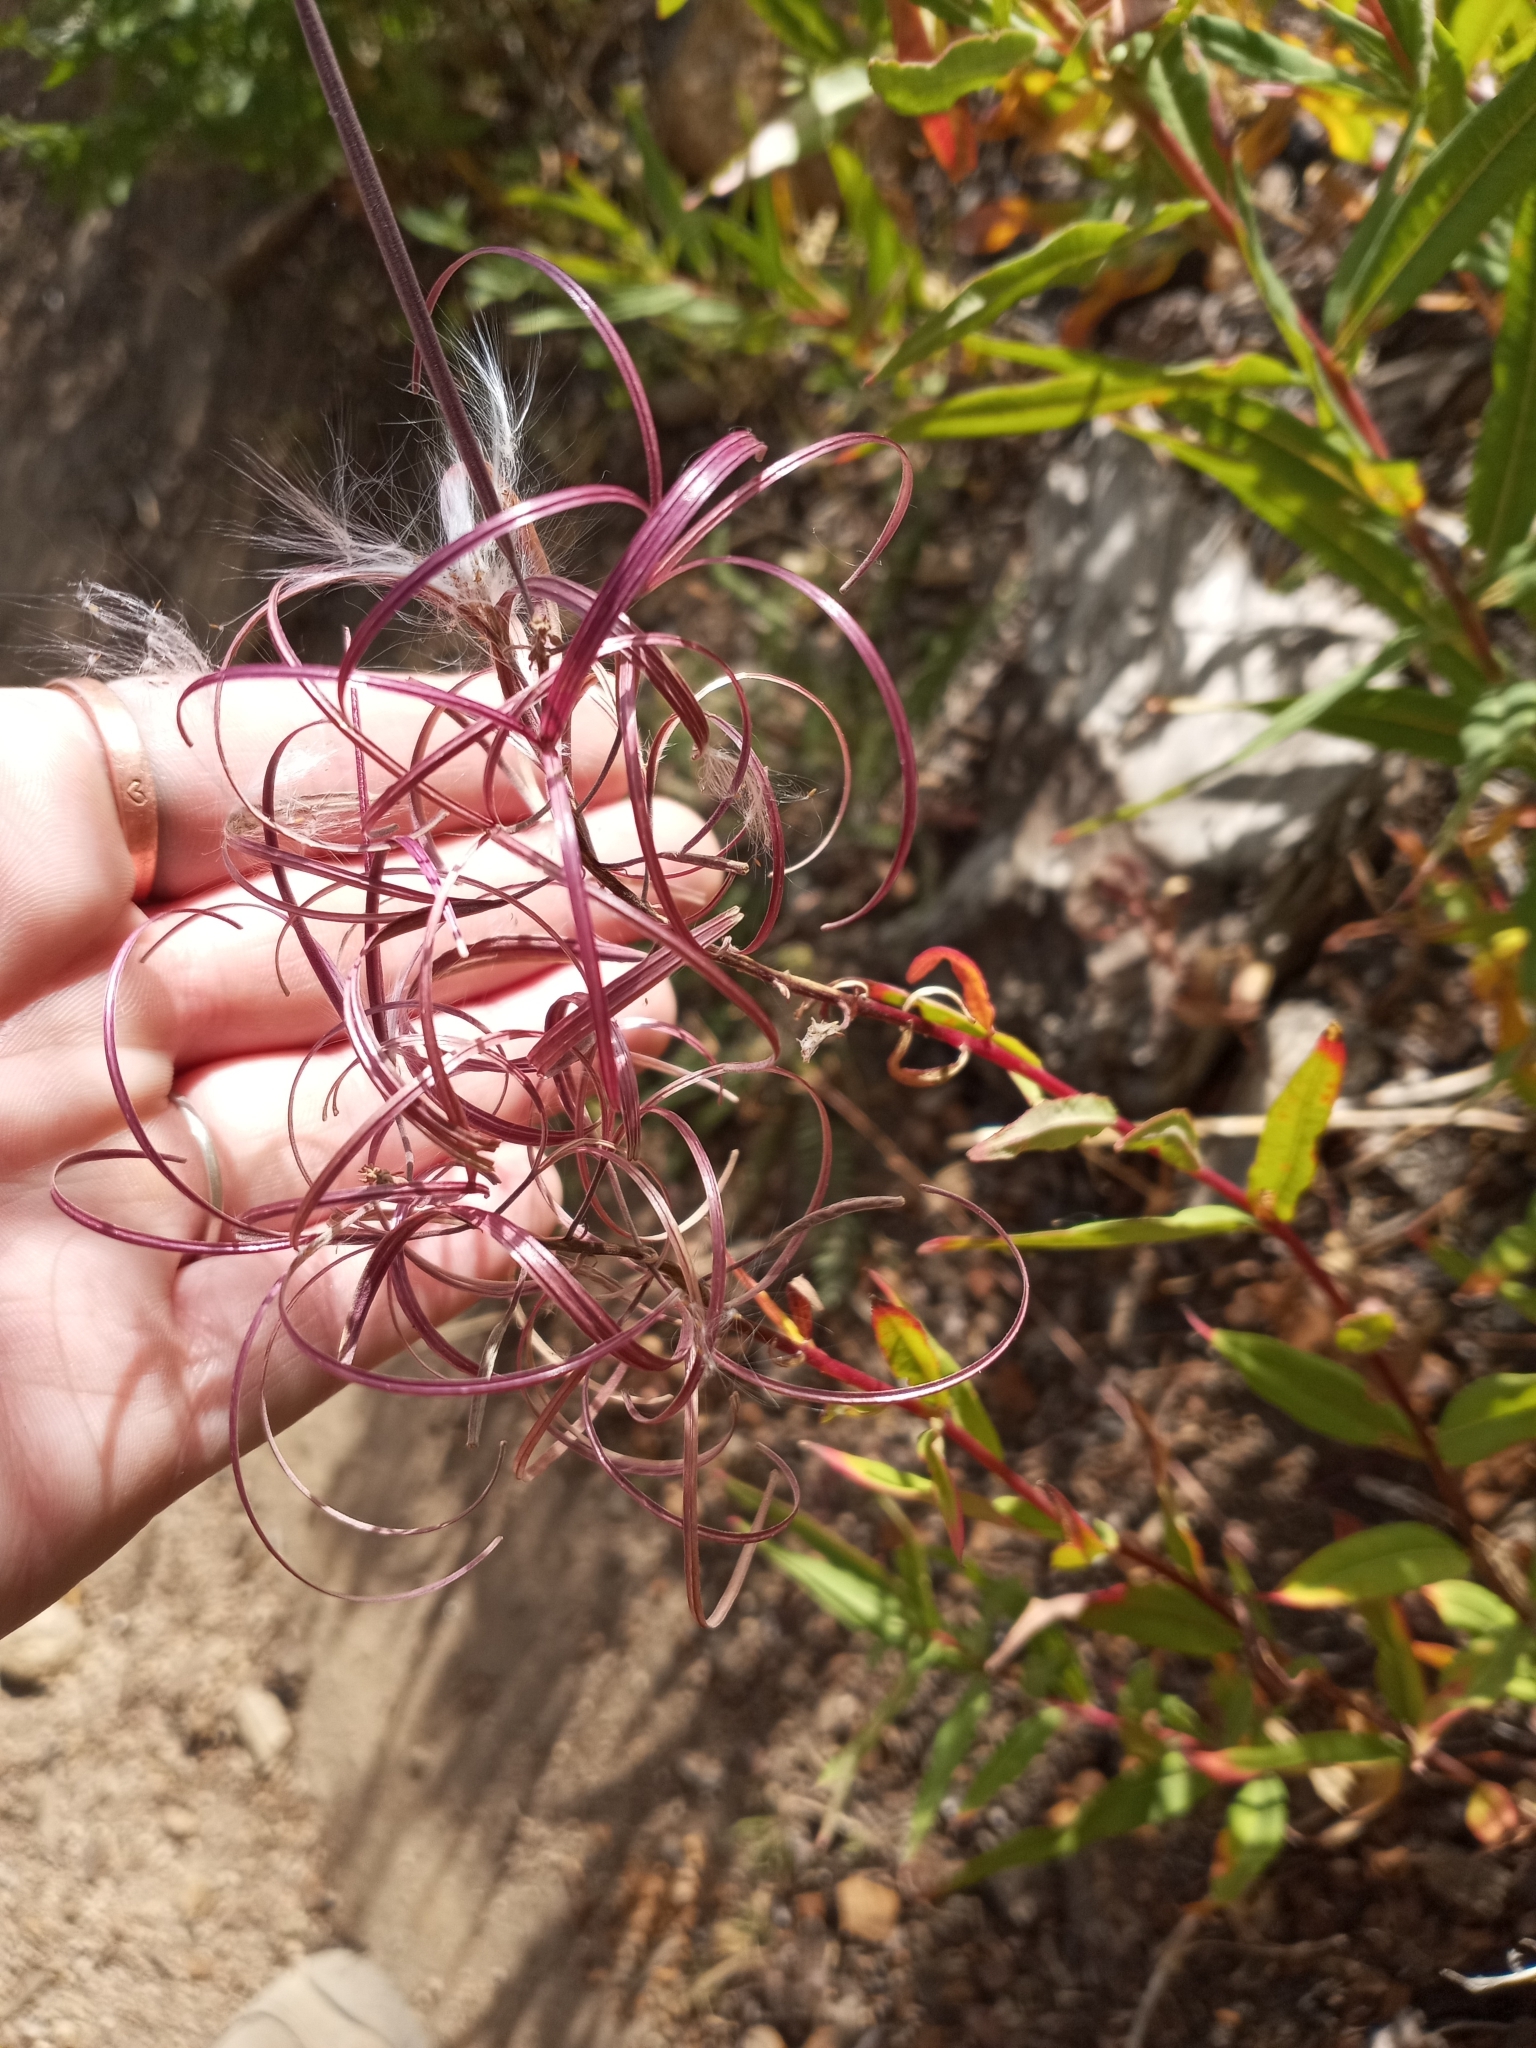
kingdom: Plantae
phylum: Tracheophyta
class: Magnoliopsida
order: Myrtales
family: Onagraceae
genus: Chamaenerion
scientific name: Chamaenerion angustifolium
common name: Fireweed
